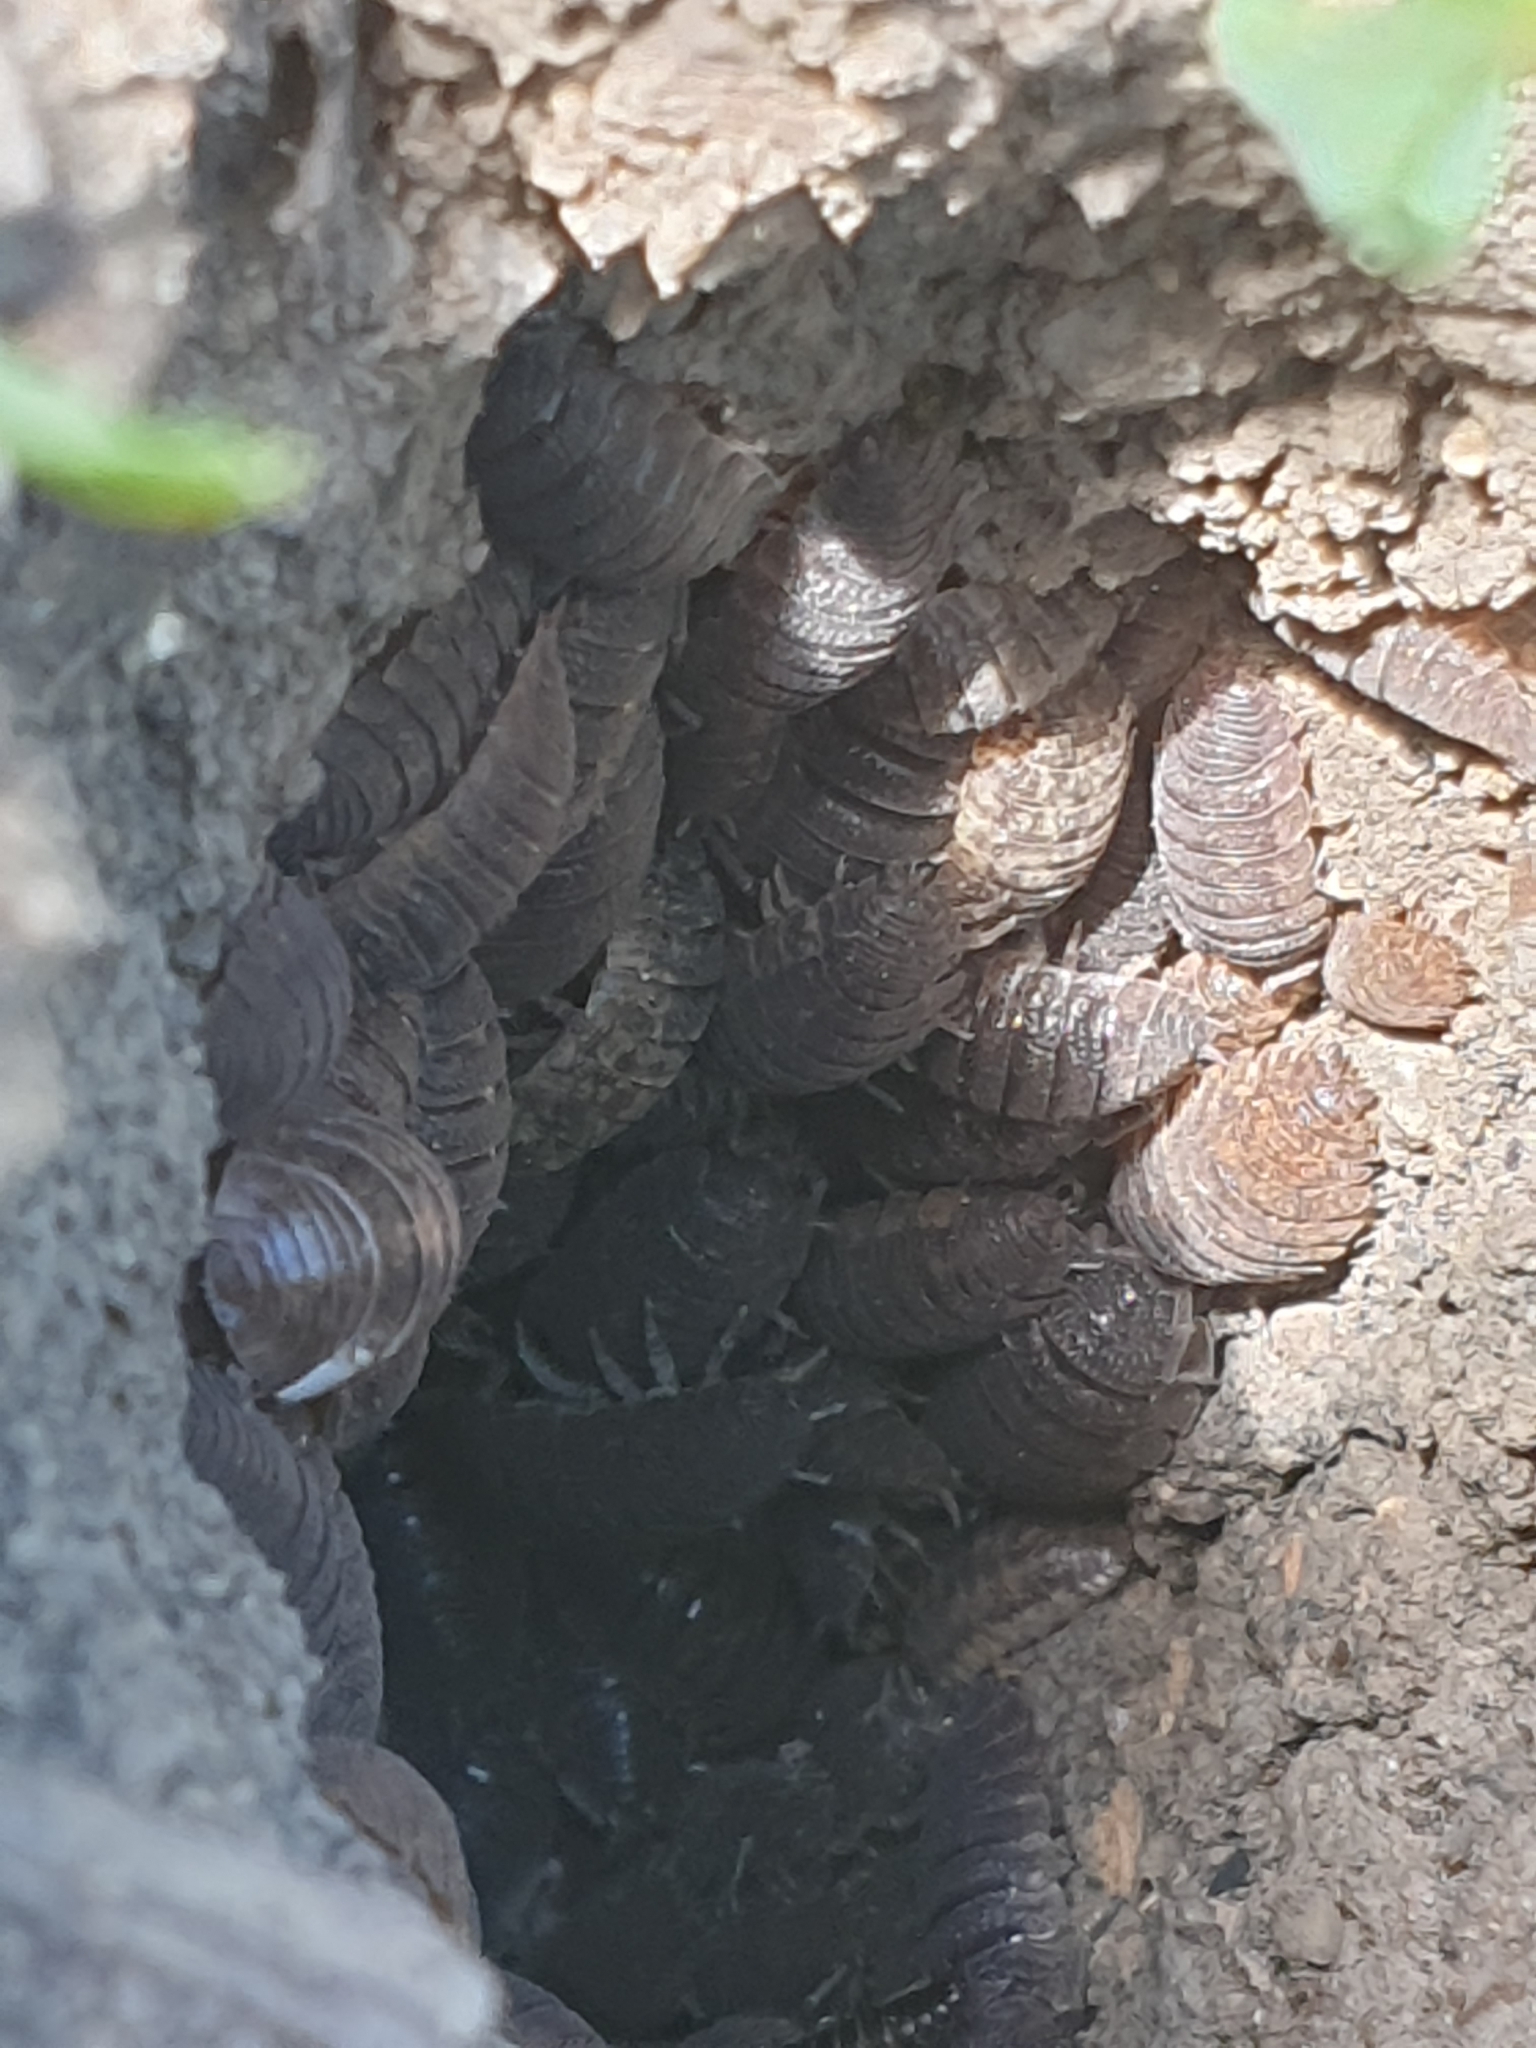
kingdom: Animalia
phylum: Arthropoda
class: Malacostraca
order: Isopoda
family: Porcellionidae
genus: Porcellio
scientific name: Porcellio scaber
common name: Common rough woodlouse
